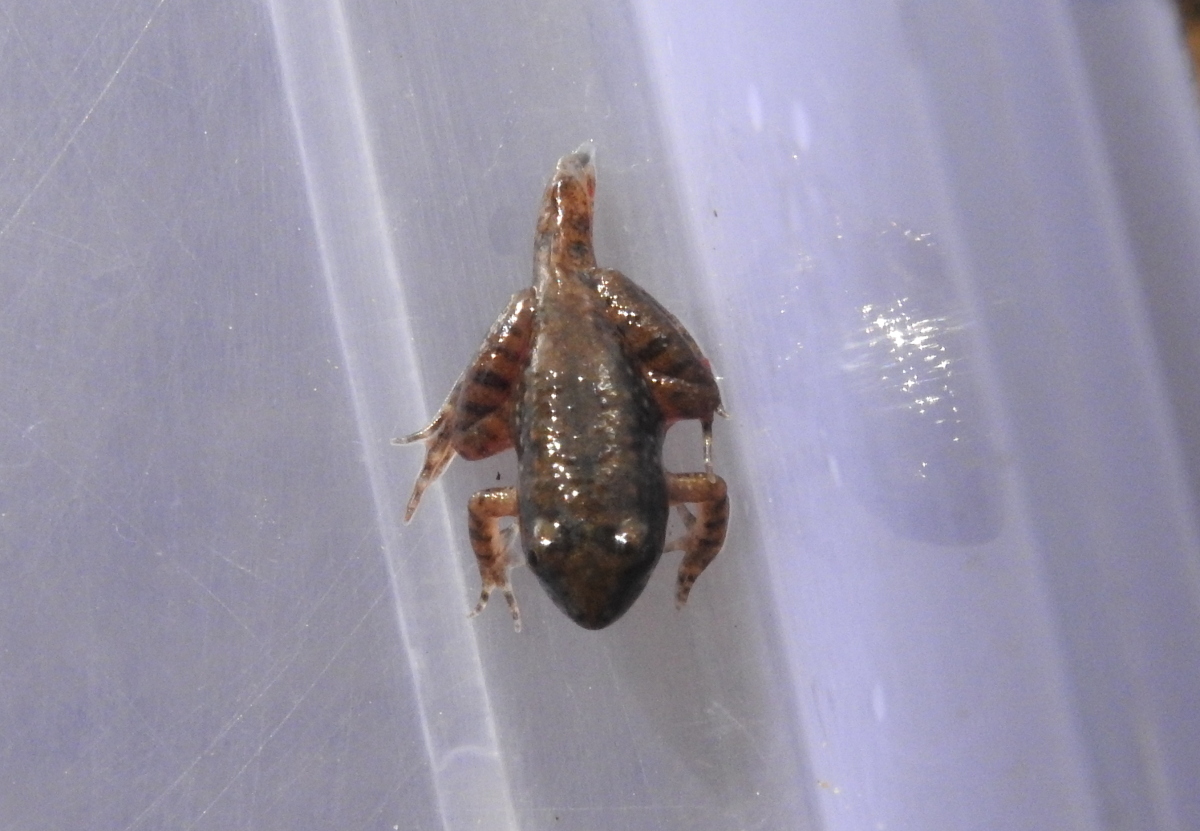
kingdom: Animalia
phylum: Chordata
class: Amphibia
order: Anura
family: Dicroglossidae
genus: Euphlyctis
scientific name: Euphlyctis cyanophlyctis
